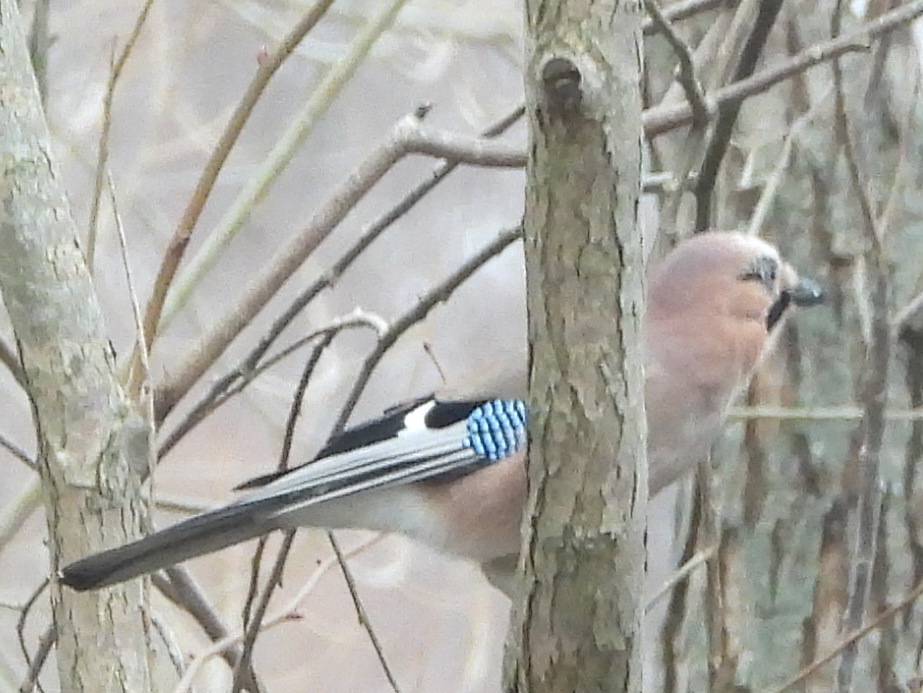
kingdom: Animalia
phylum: Chordata
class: Aves
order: Passeriformes
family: Corvidae
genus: Garrulus
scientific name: Garrulus glandarius
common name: Eurasian jay
